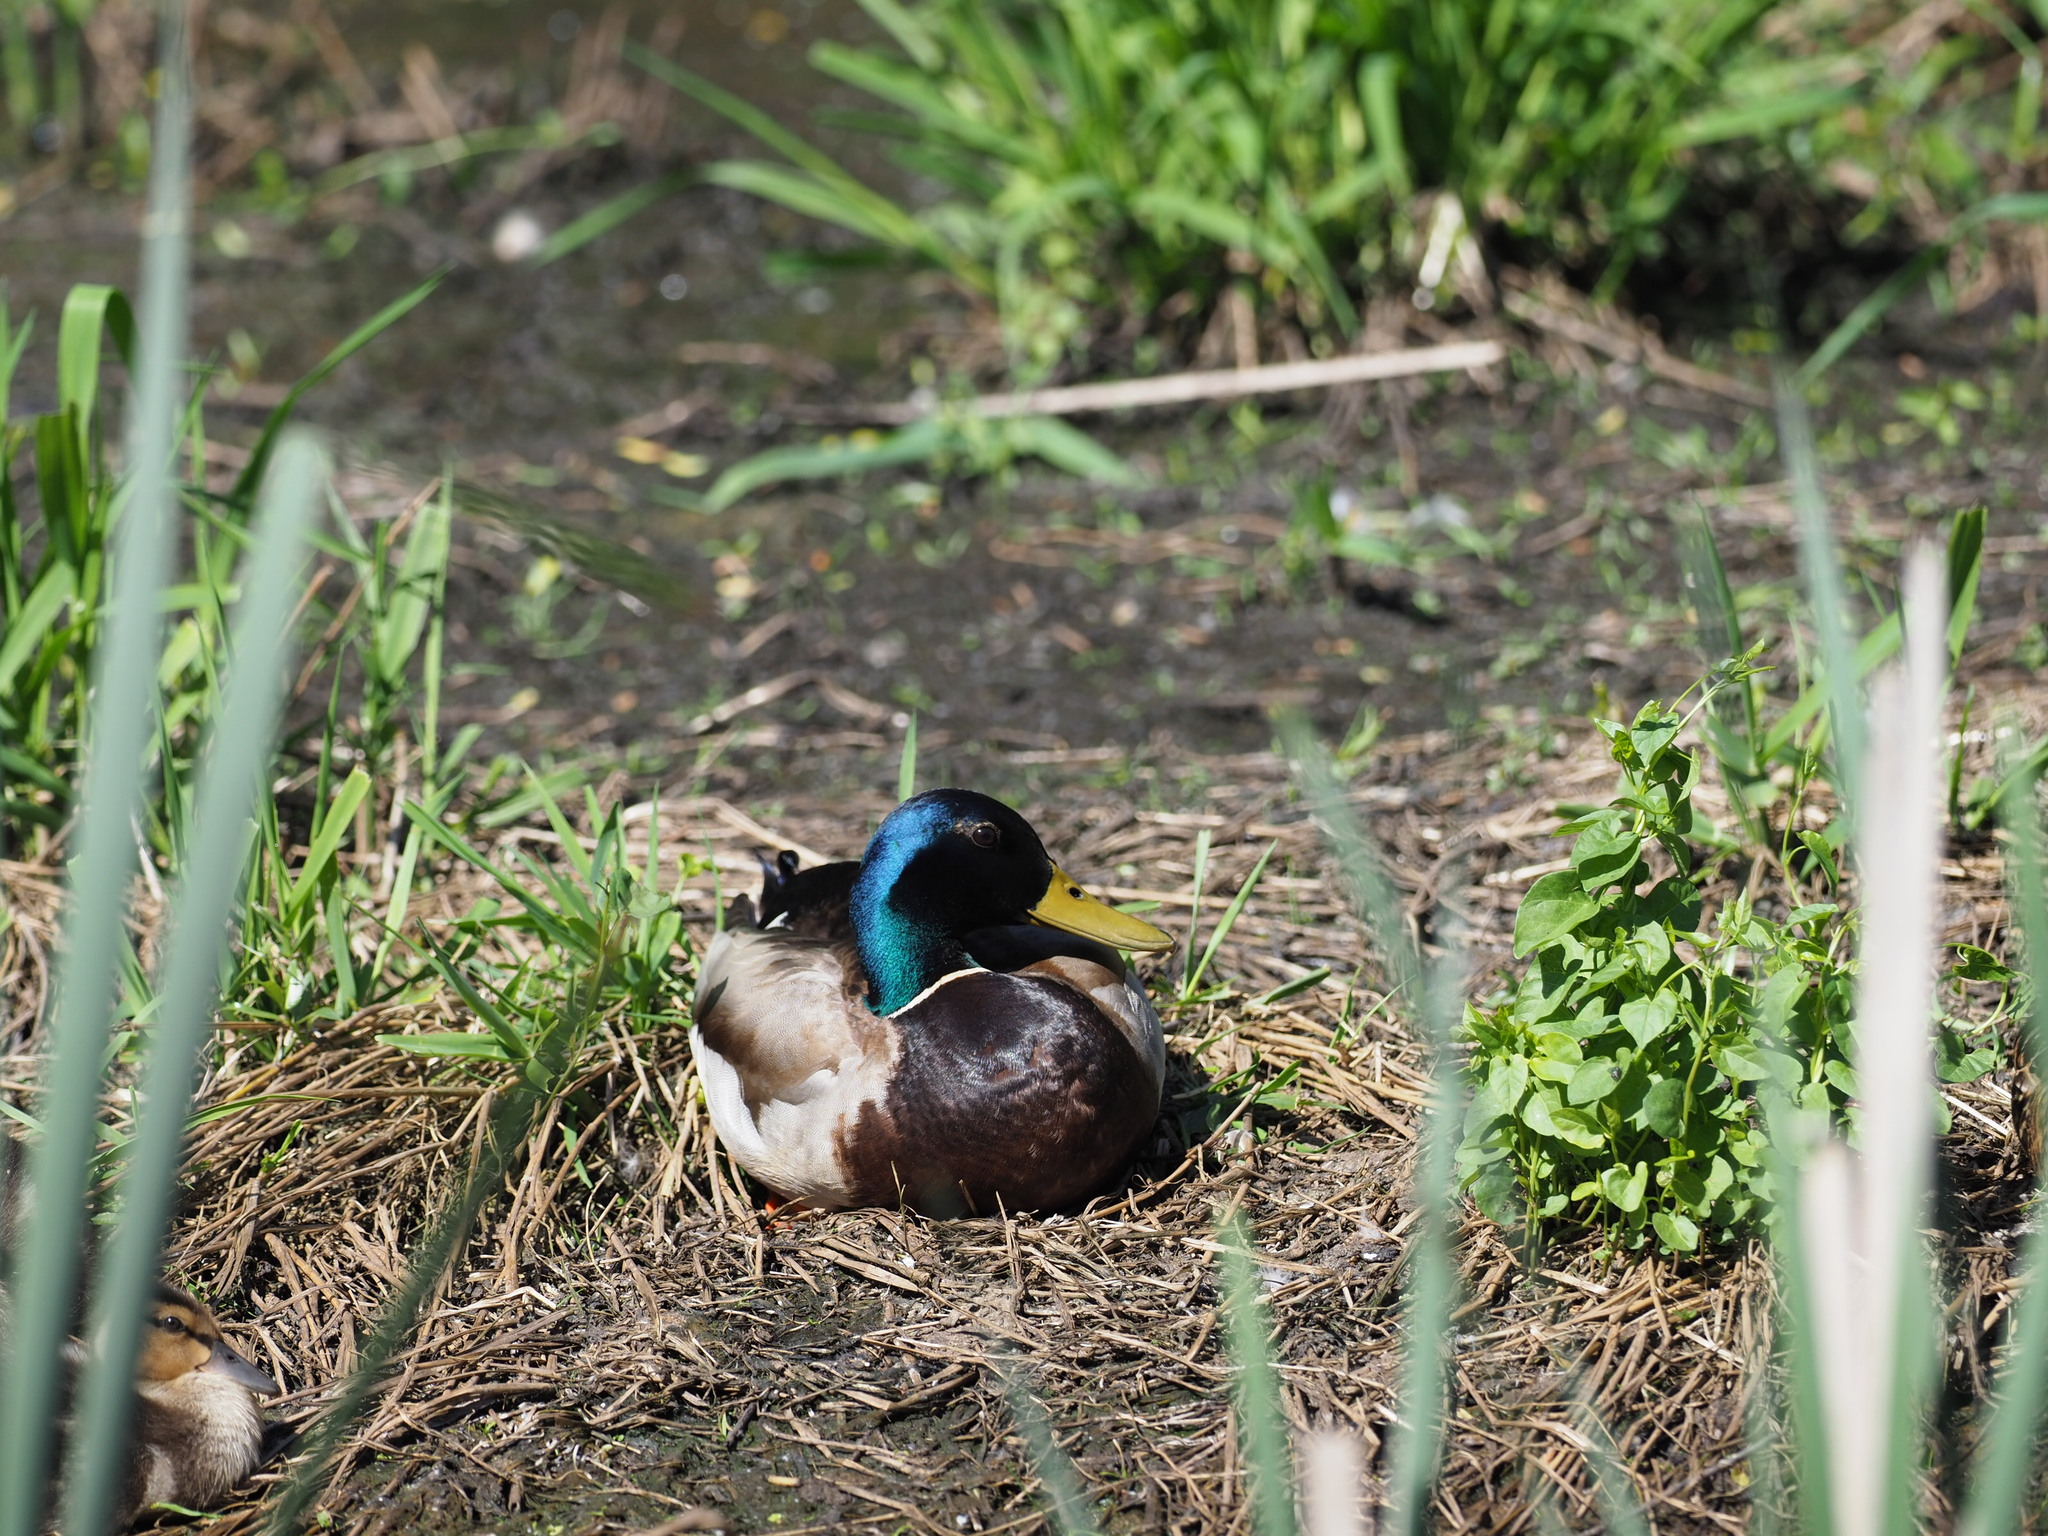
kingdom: Animalia
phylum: Chordata
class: Aves
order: Anseriformes
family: Anatidae
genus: Anas
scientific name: Anas platyrhynchos
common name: Mallard
